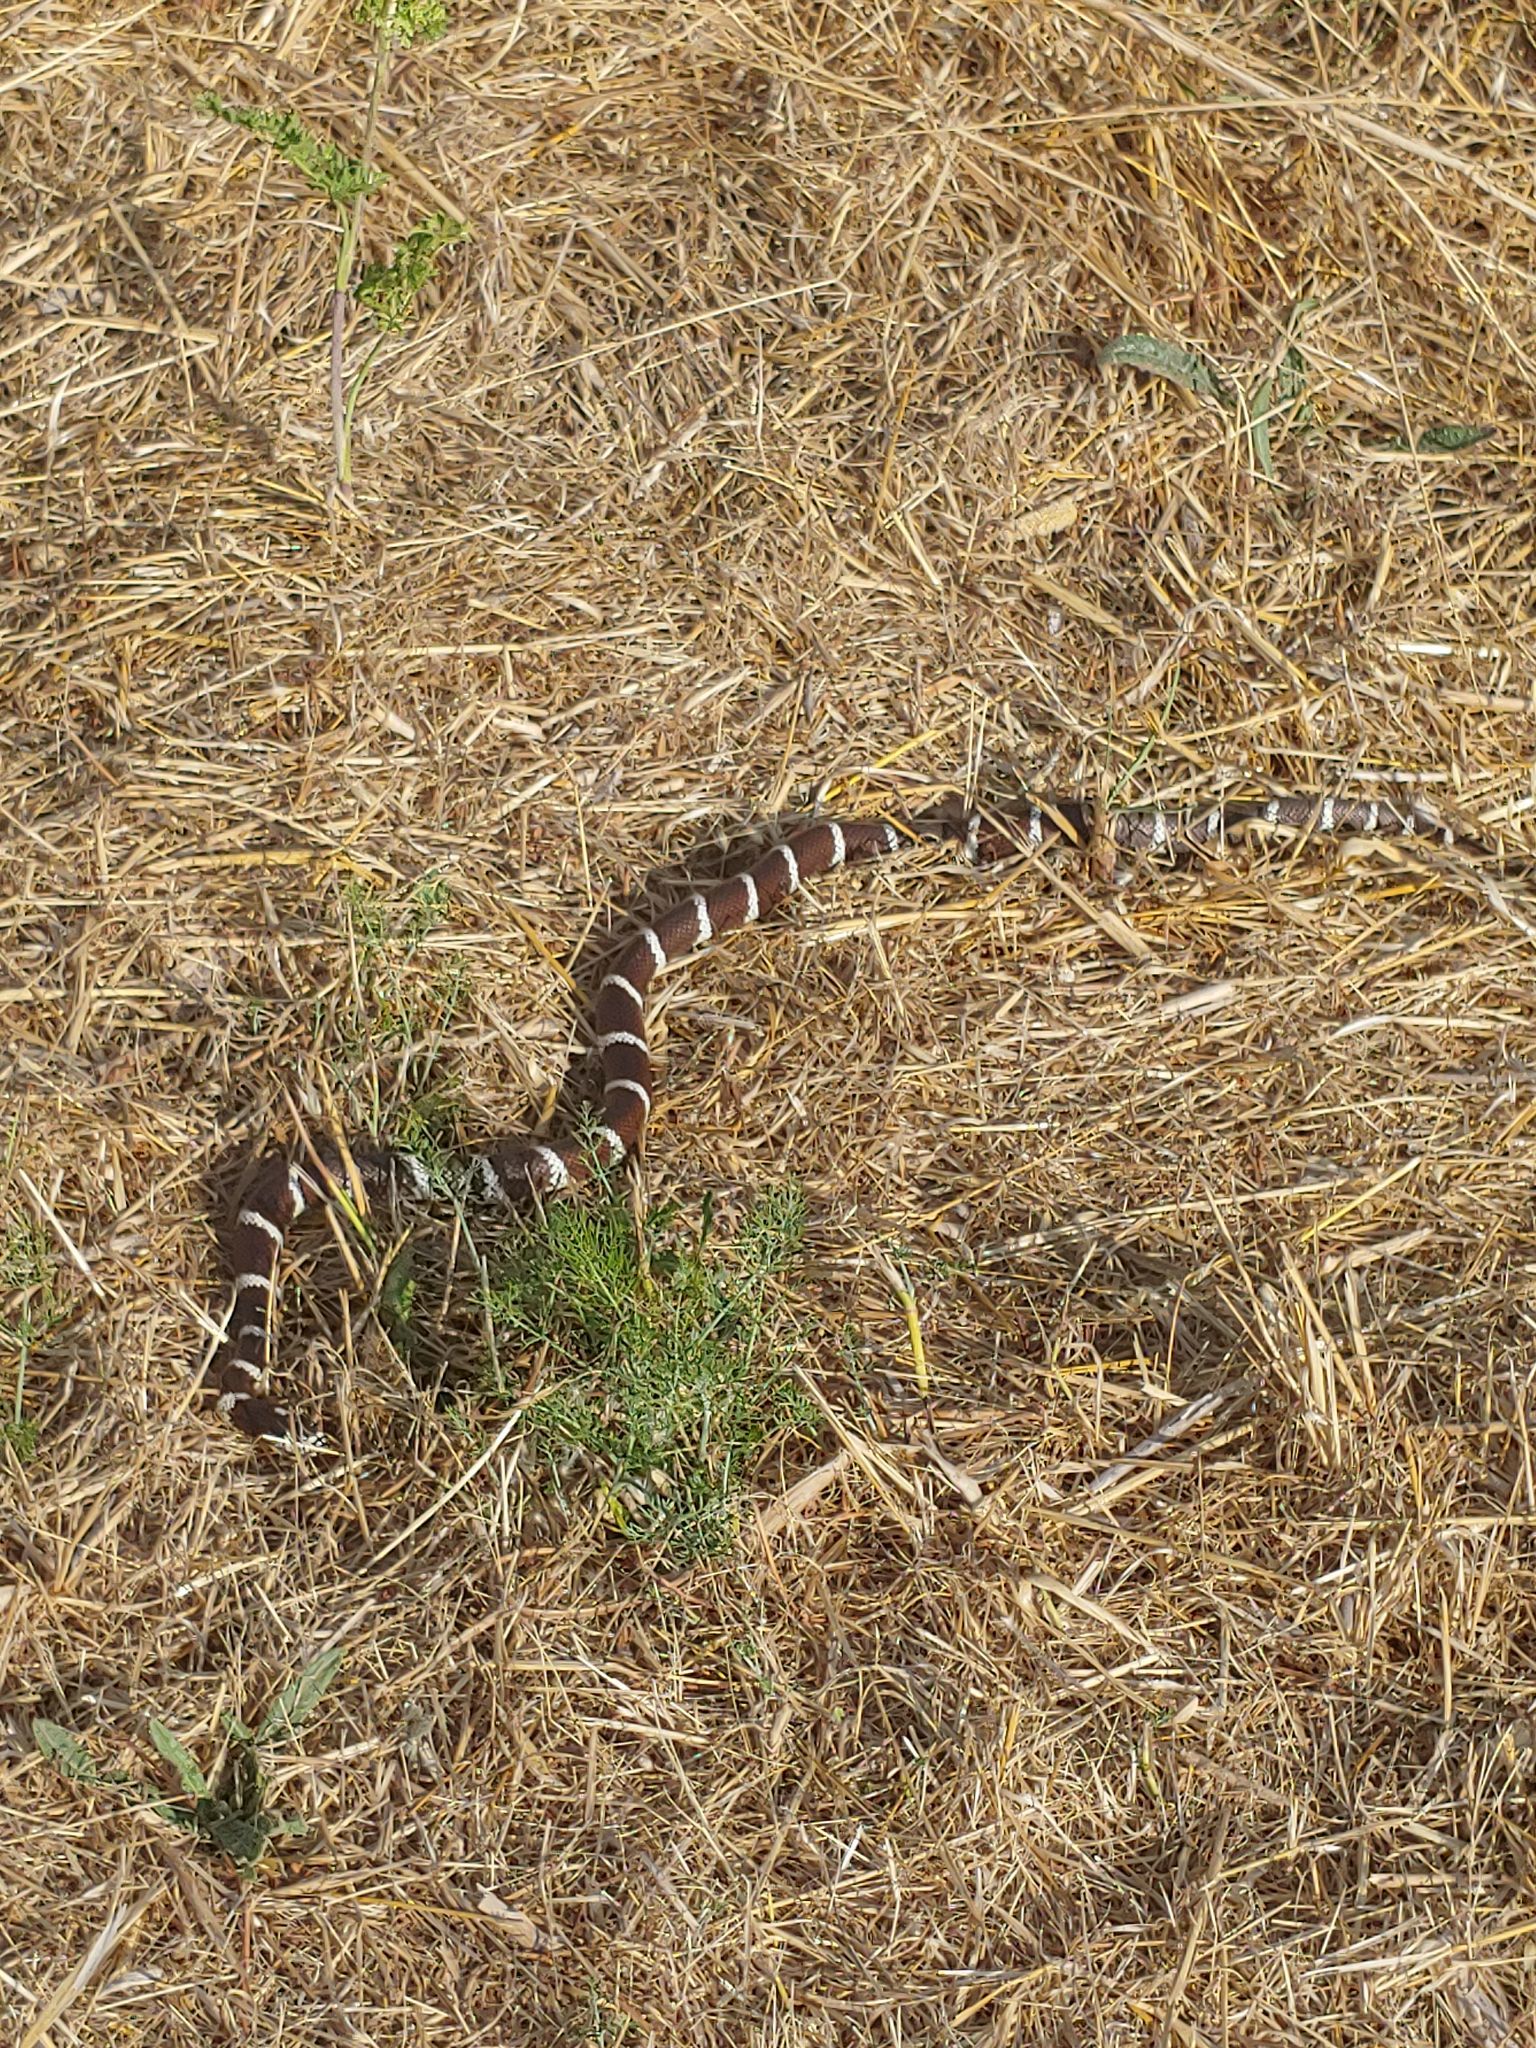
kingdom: Animalia
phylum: Chordata
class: Squamata
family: Colubridae
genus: Lampropeltis
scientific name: Lampropeltis californiae
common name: California kingsnake
